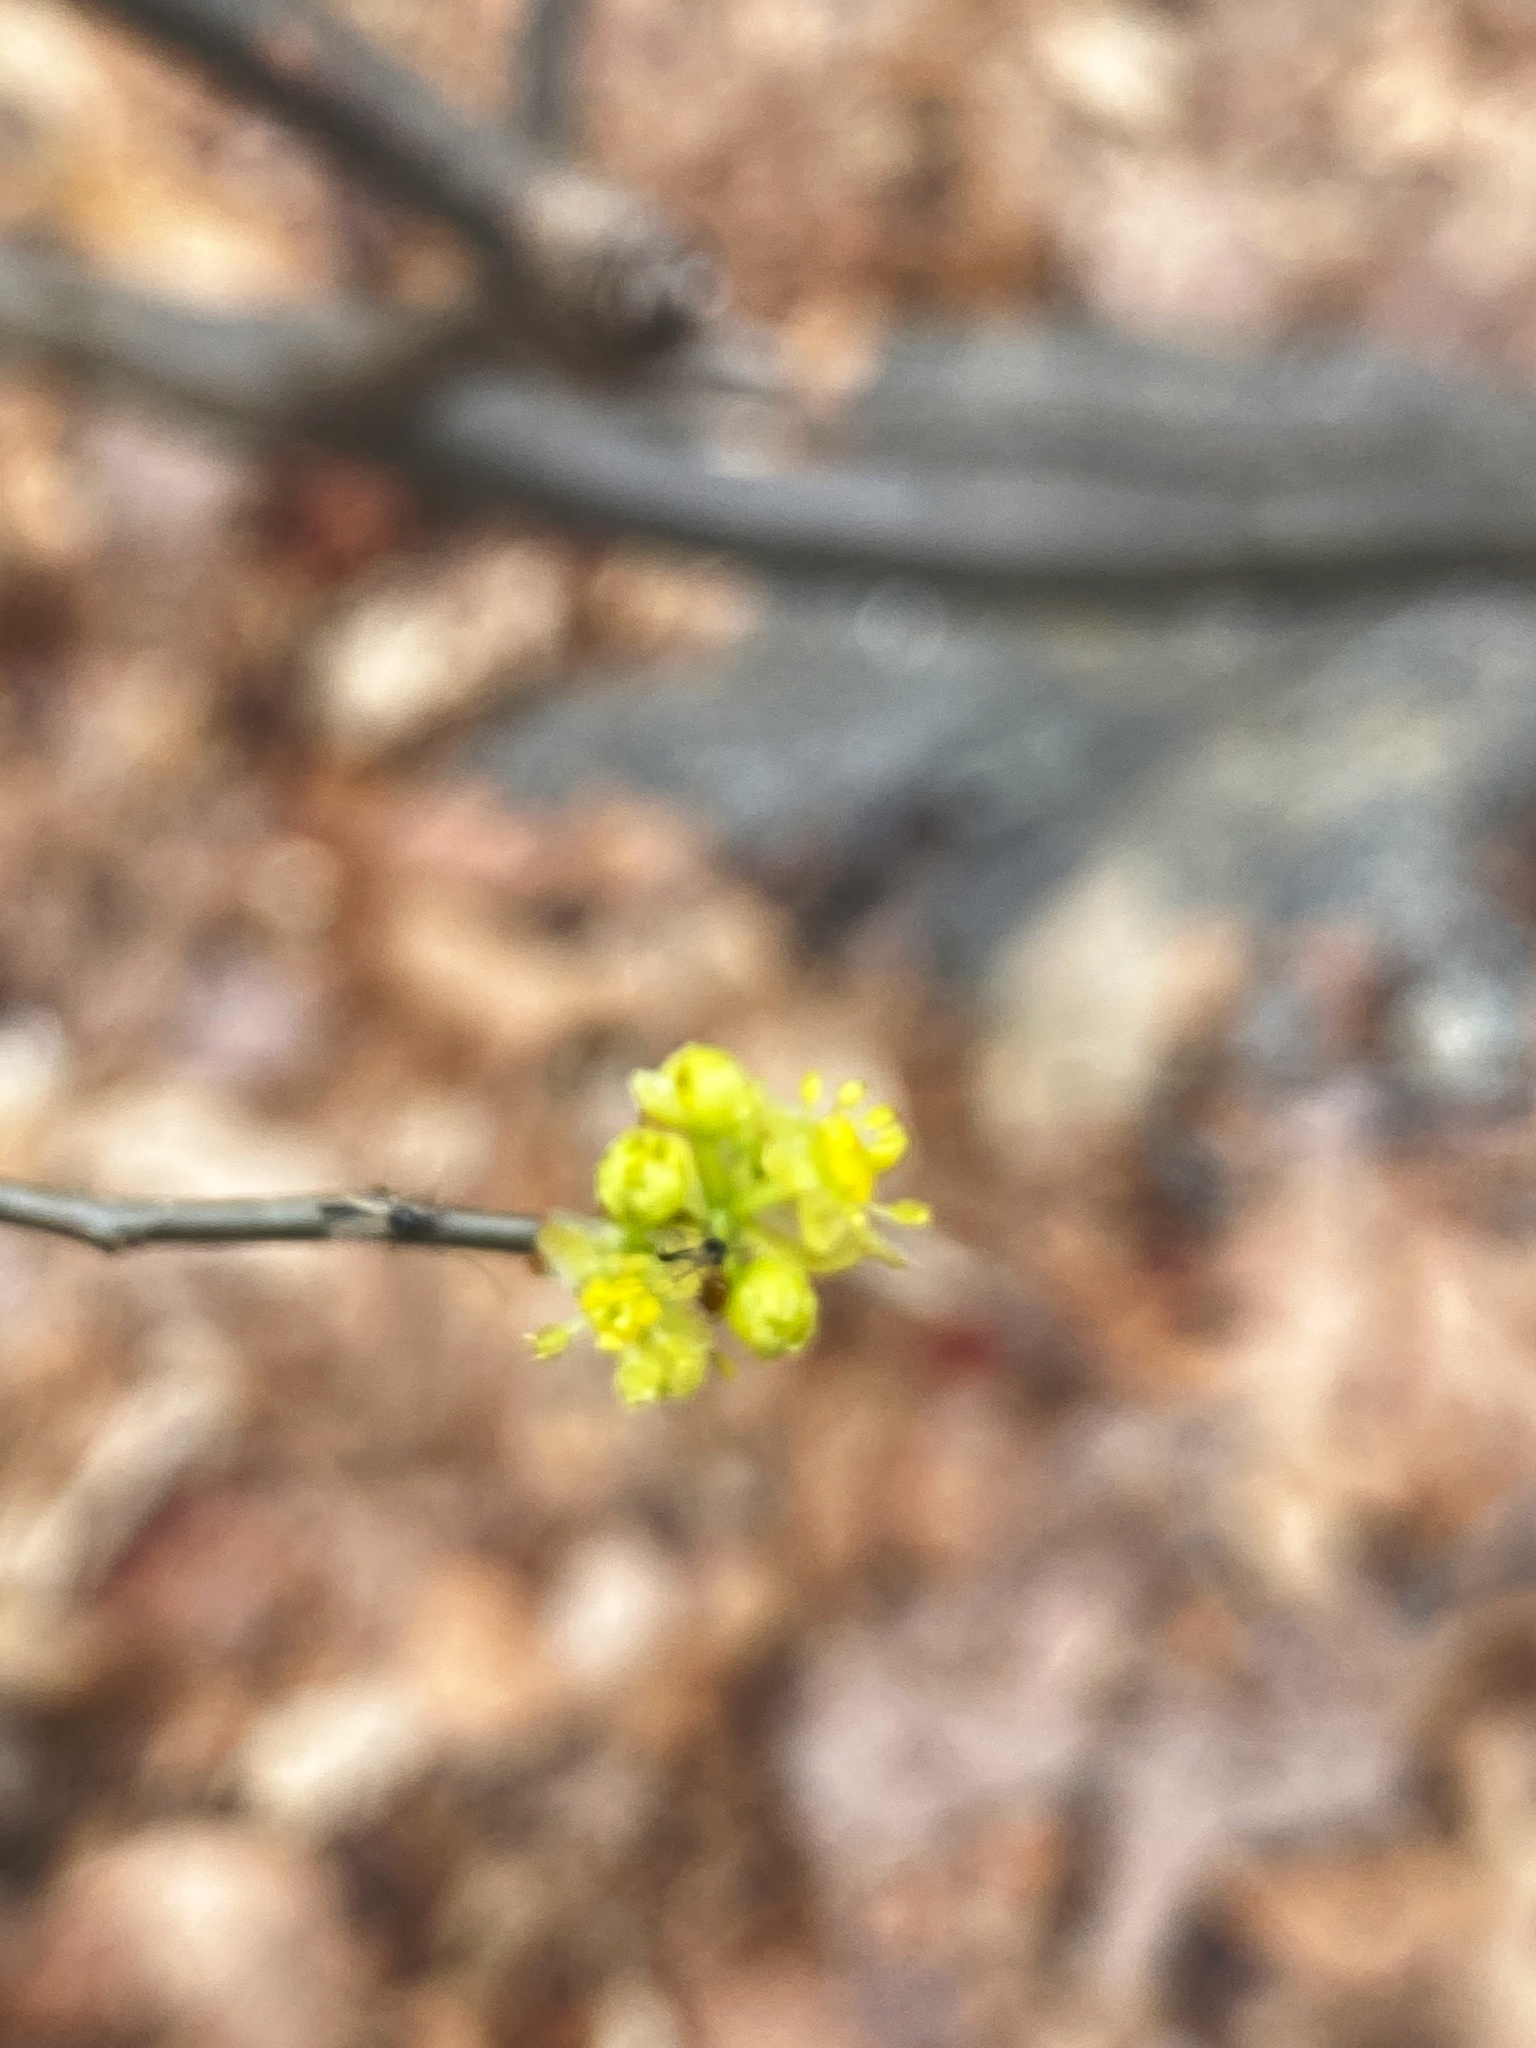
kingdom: Plantae
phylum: Tracheophyta
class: Magnoliopsida
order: Laurales
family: Lauraceae
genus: Lindera
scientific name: Lindera benzoin
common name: Spicebush
